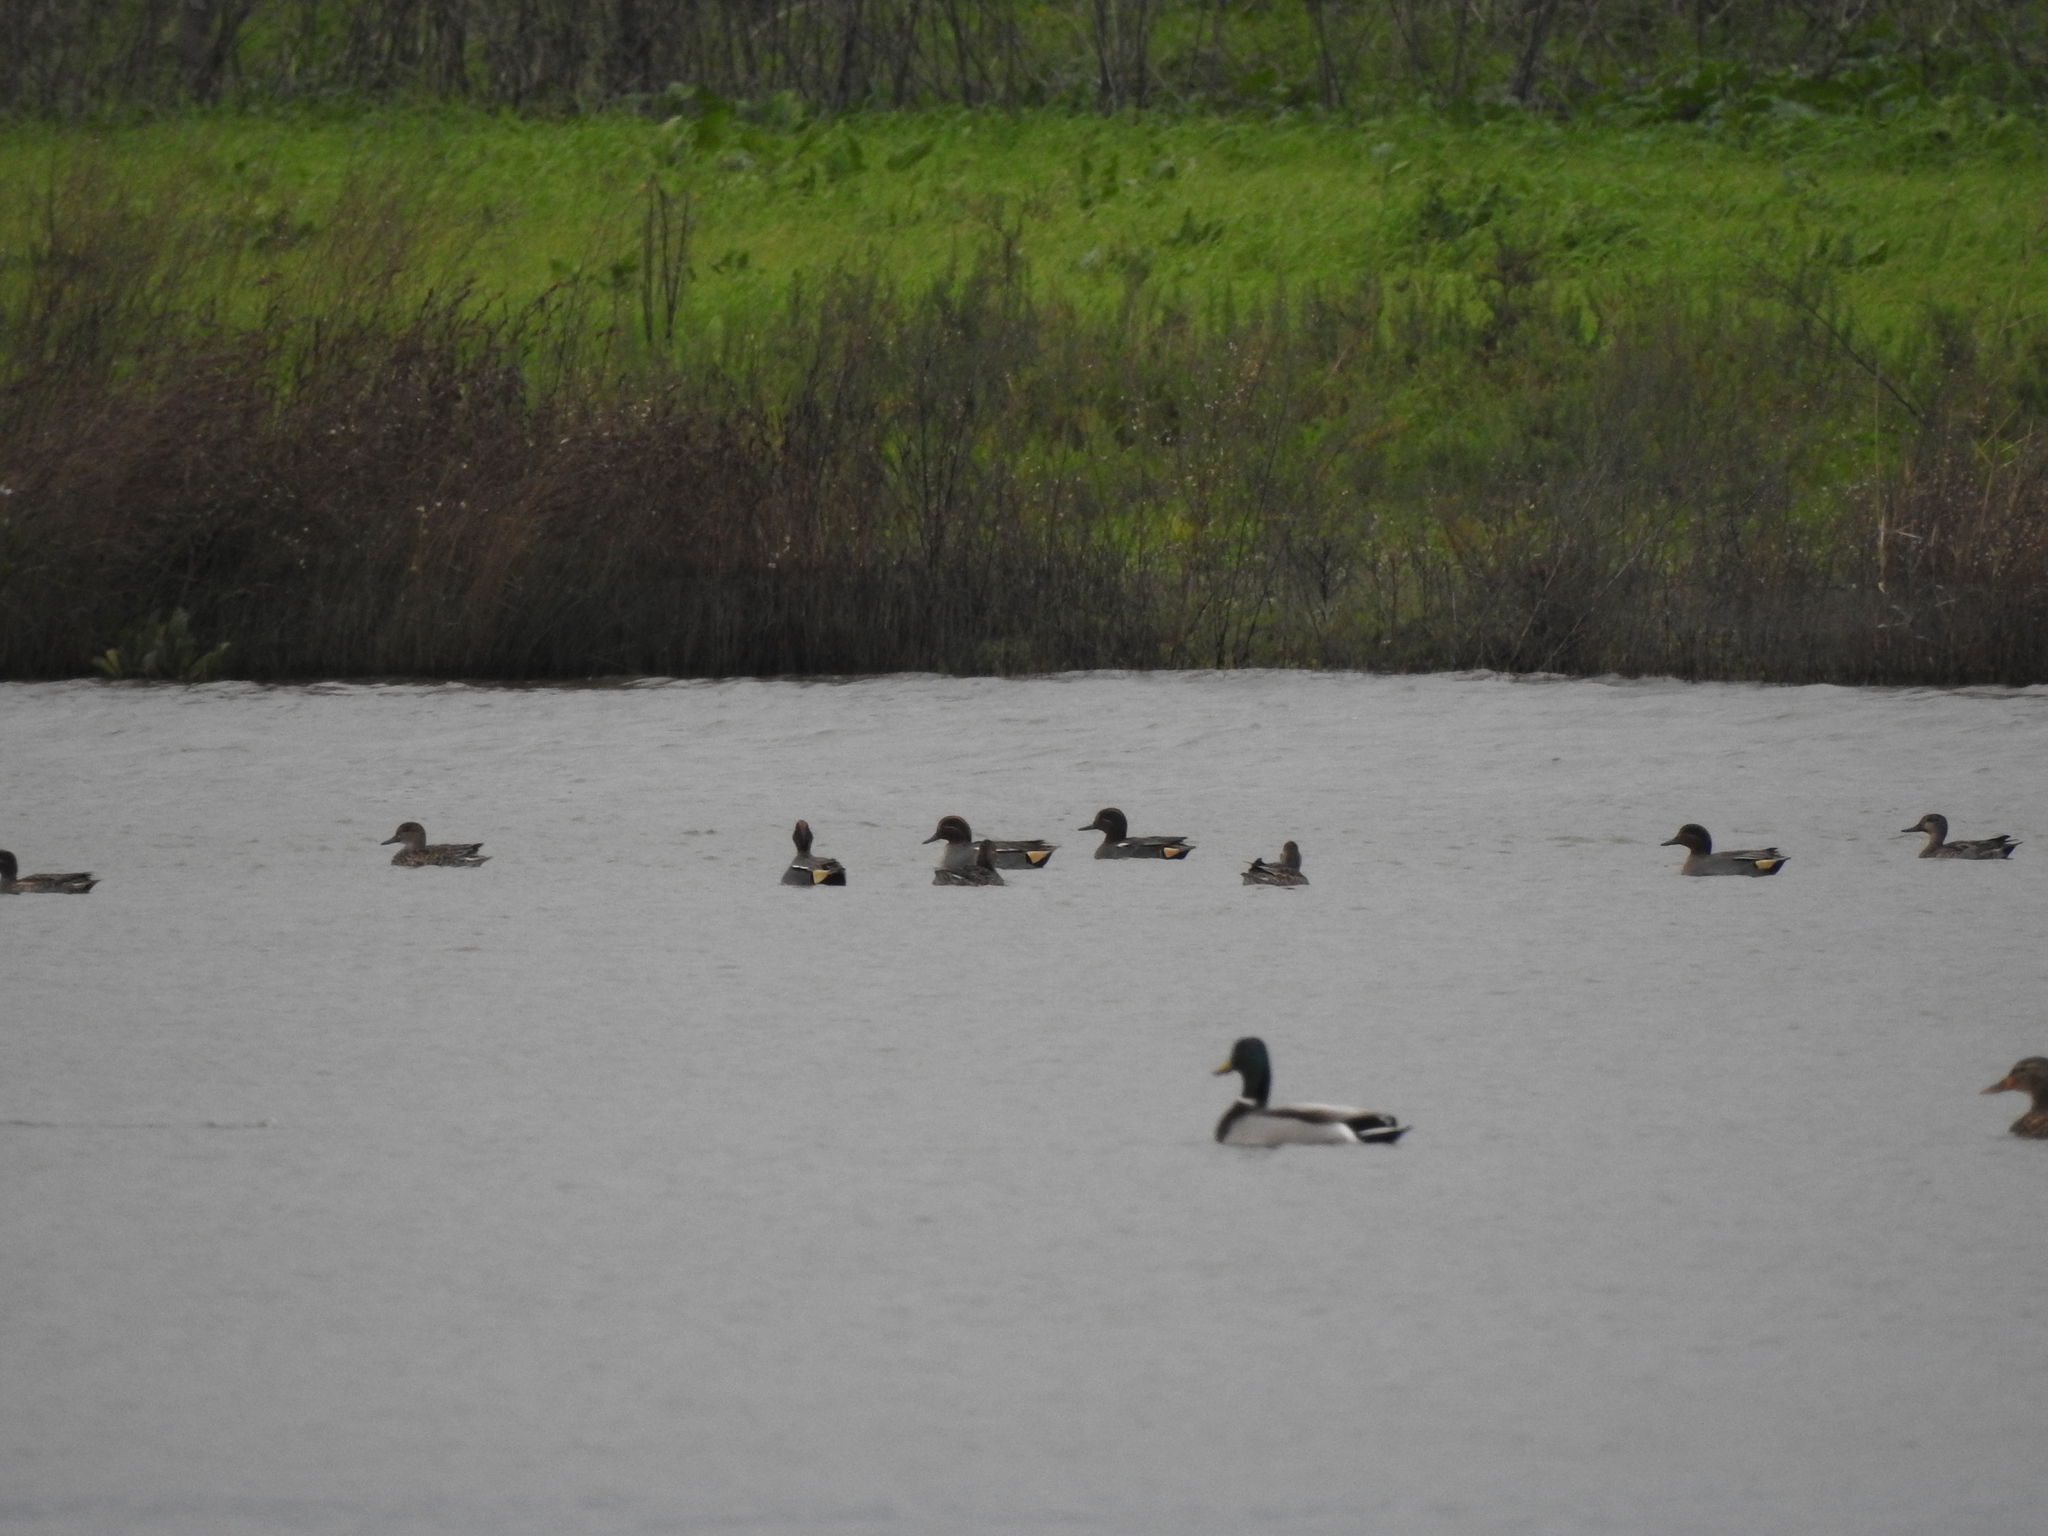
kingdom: Animalia
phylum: Chordata
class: Aves
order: Anseriformes
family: Anatidae
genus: Anas
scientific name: Anas crecca
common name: Eurasian teal
